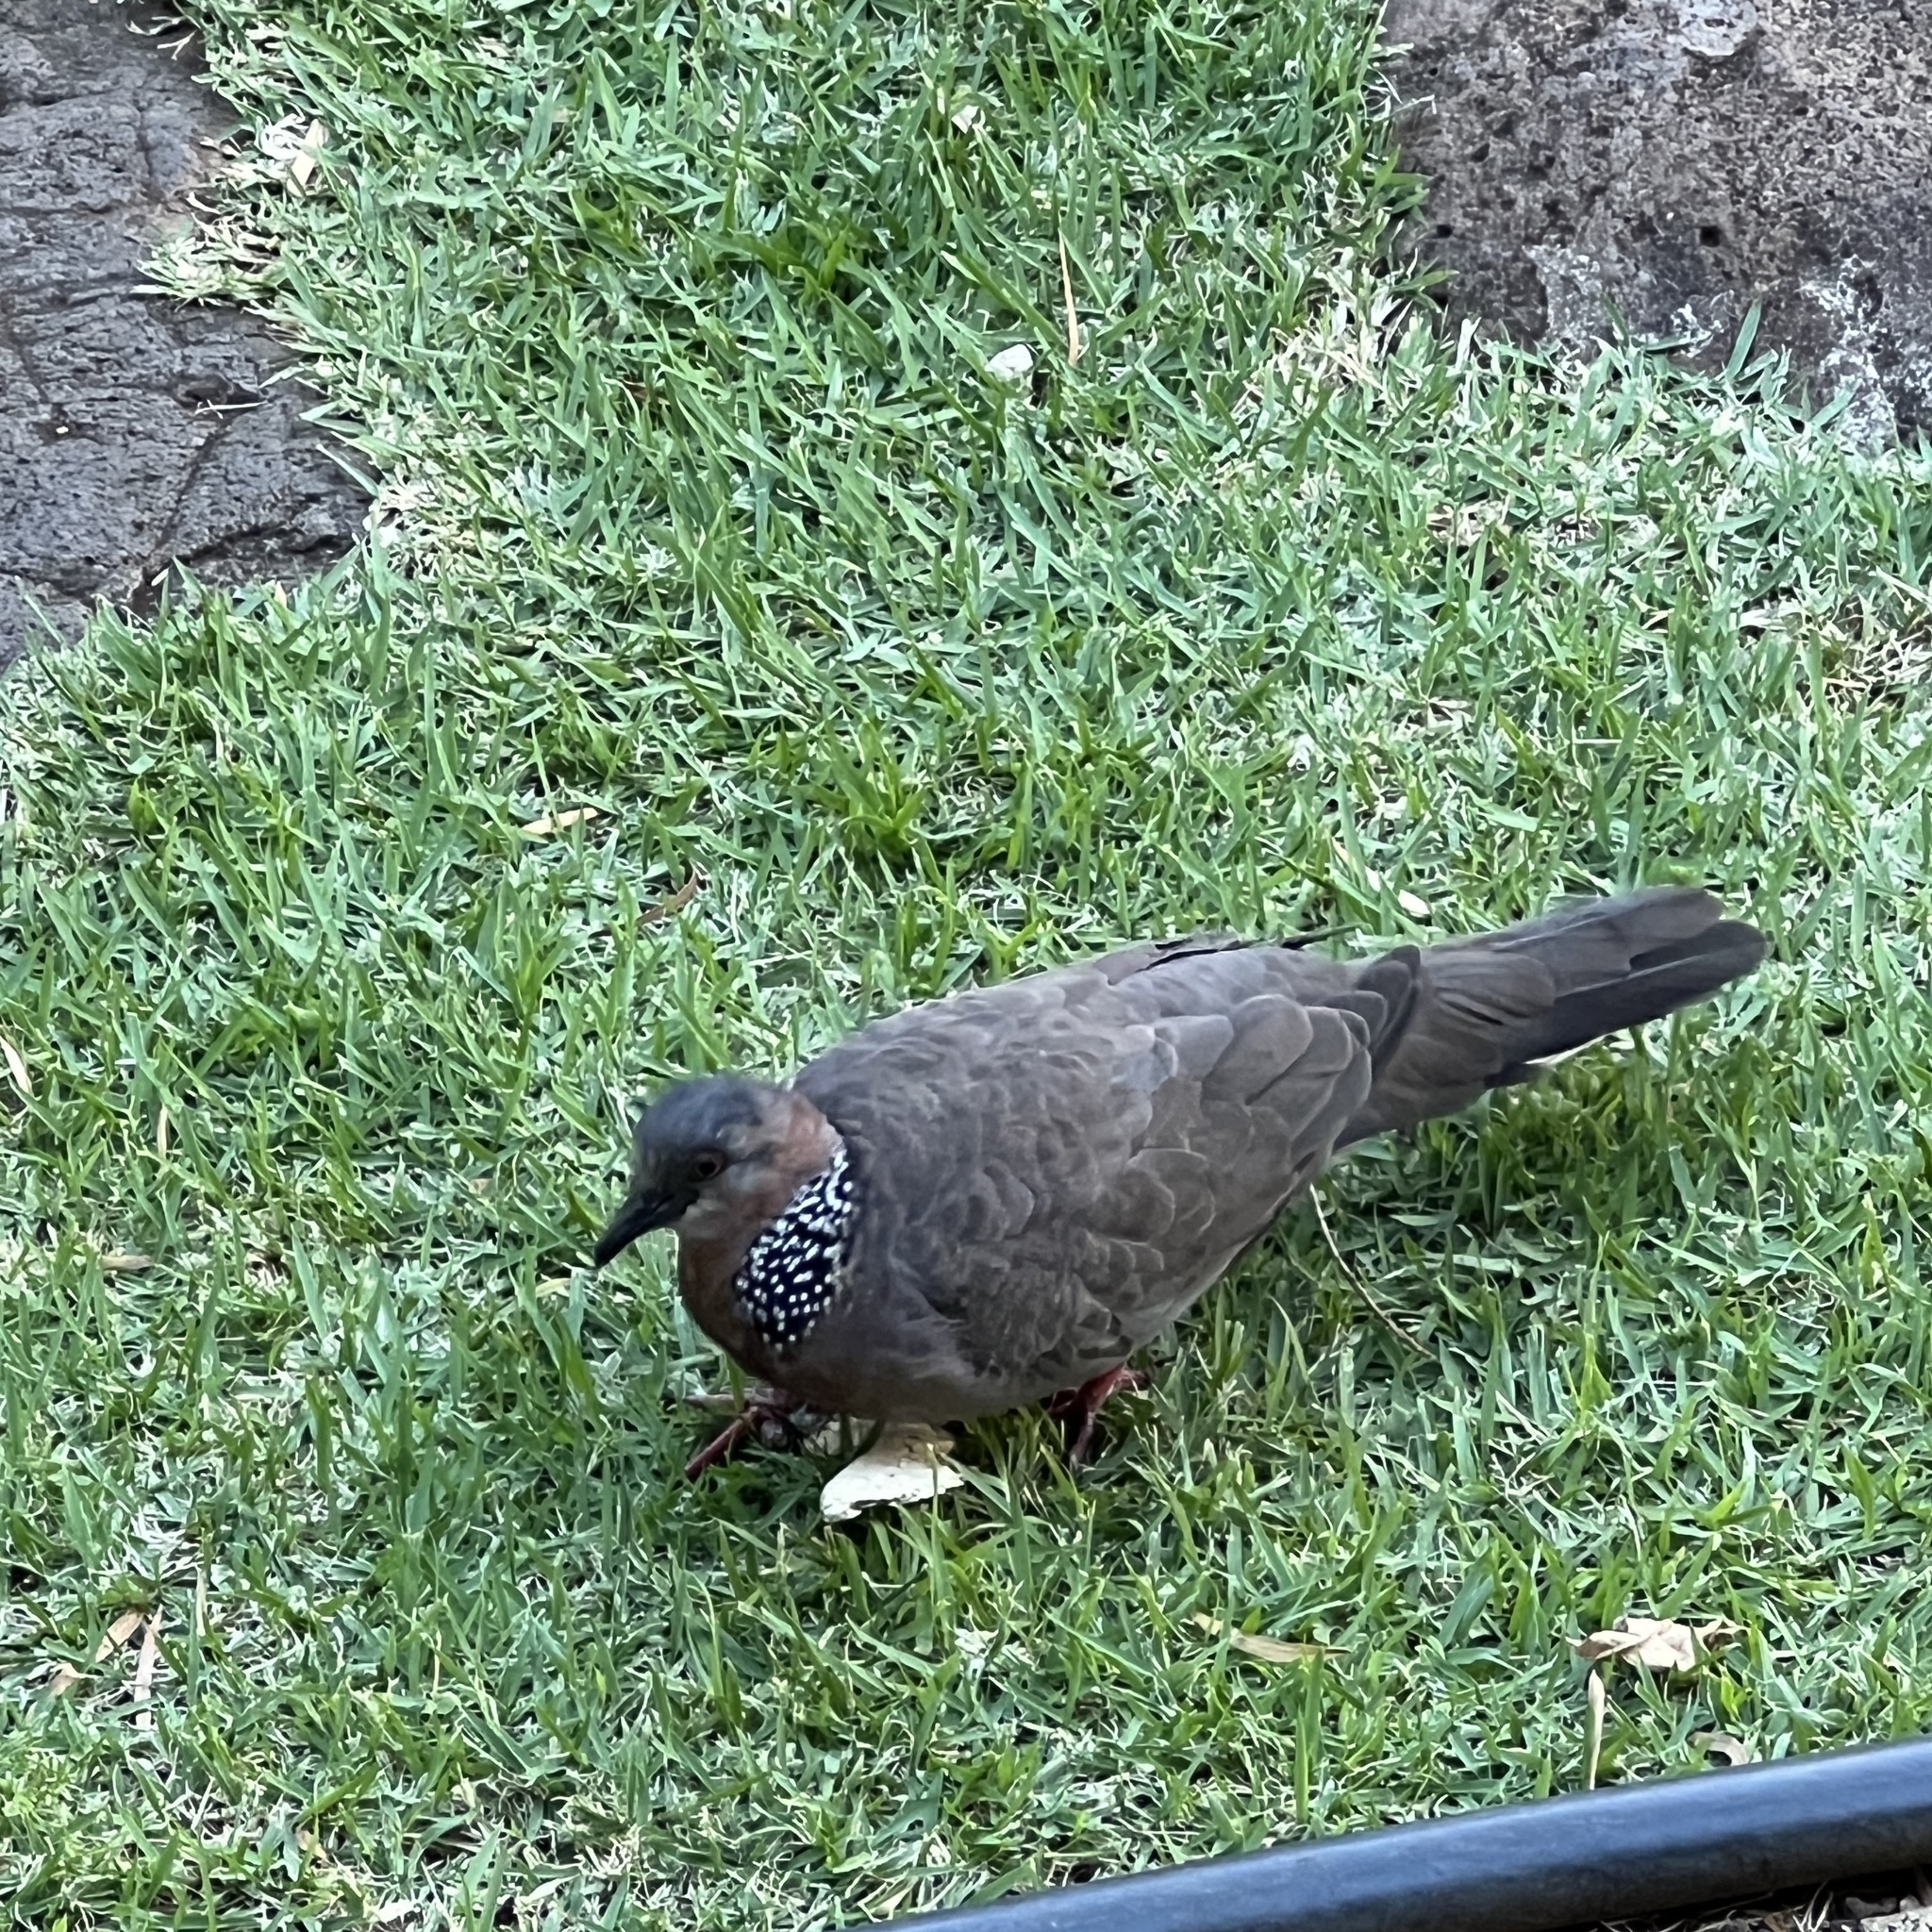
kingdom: Animalia
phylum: Chordata
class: Aves
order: Columbiformes
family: Columbidae
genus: Spilopelia
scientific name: Spilopelia chinensis
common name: Spotted dove
